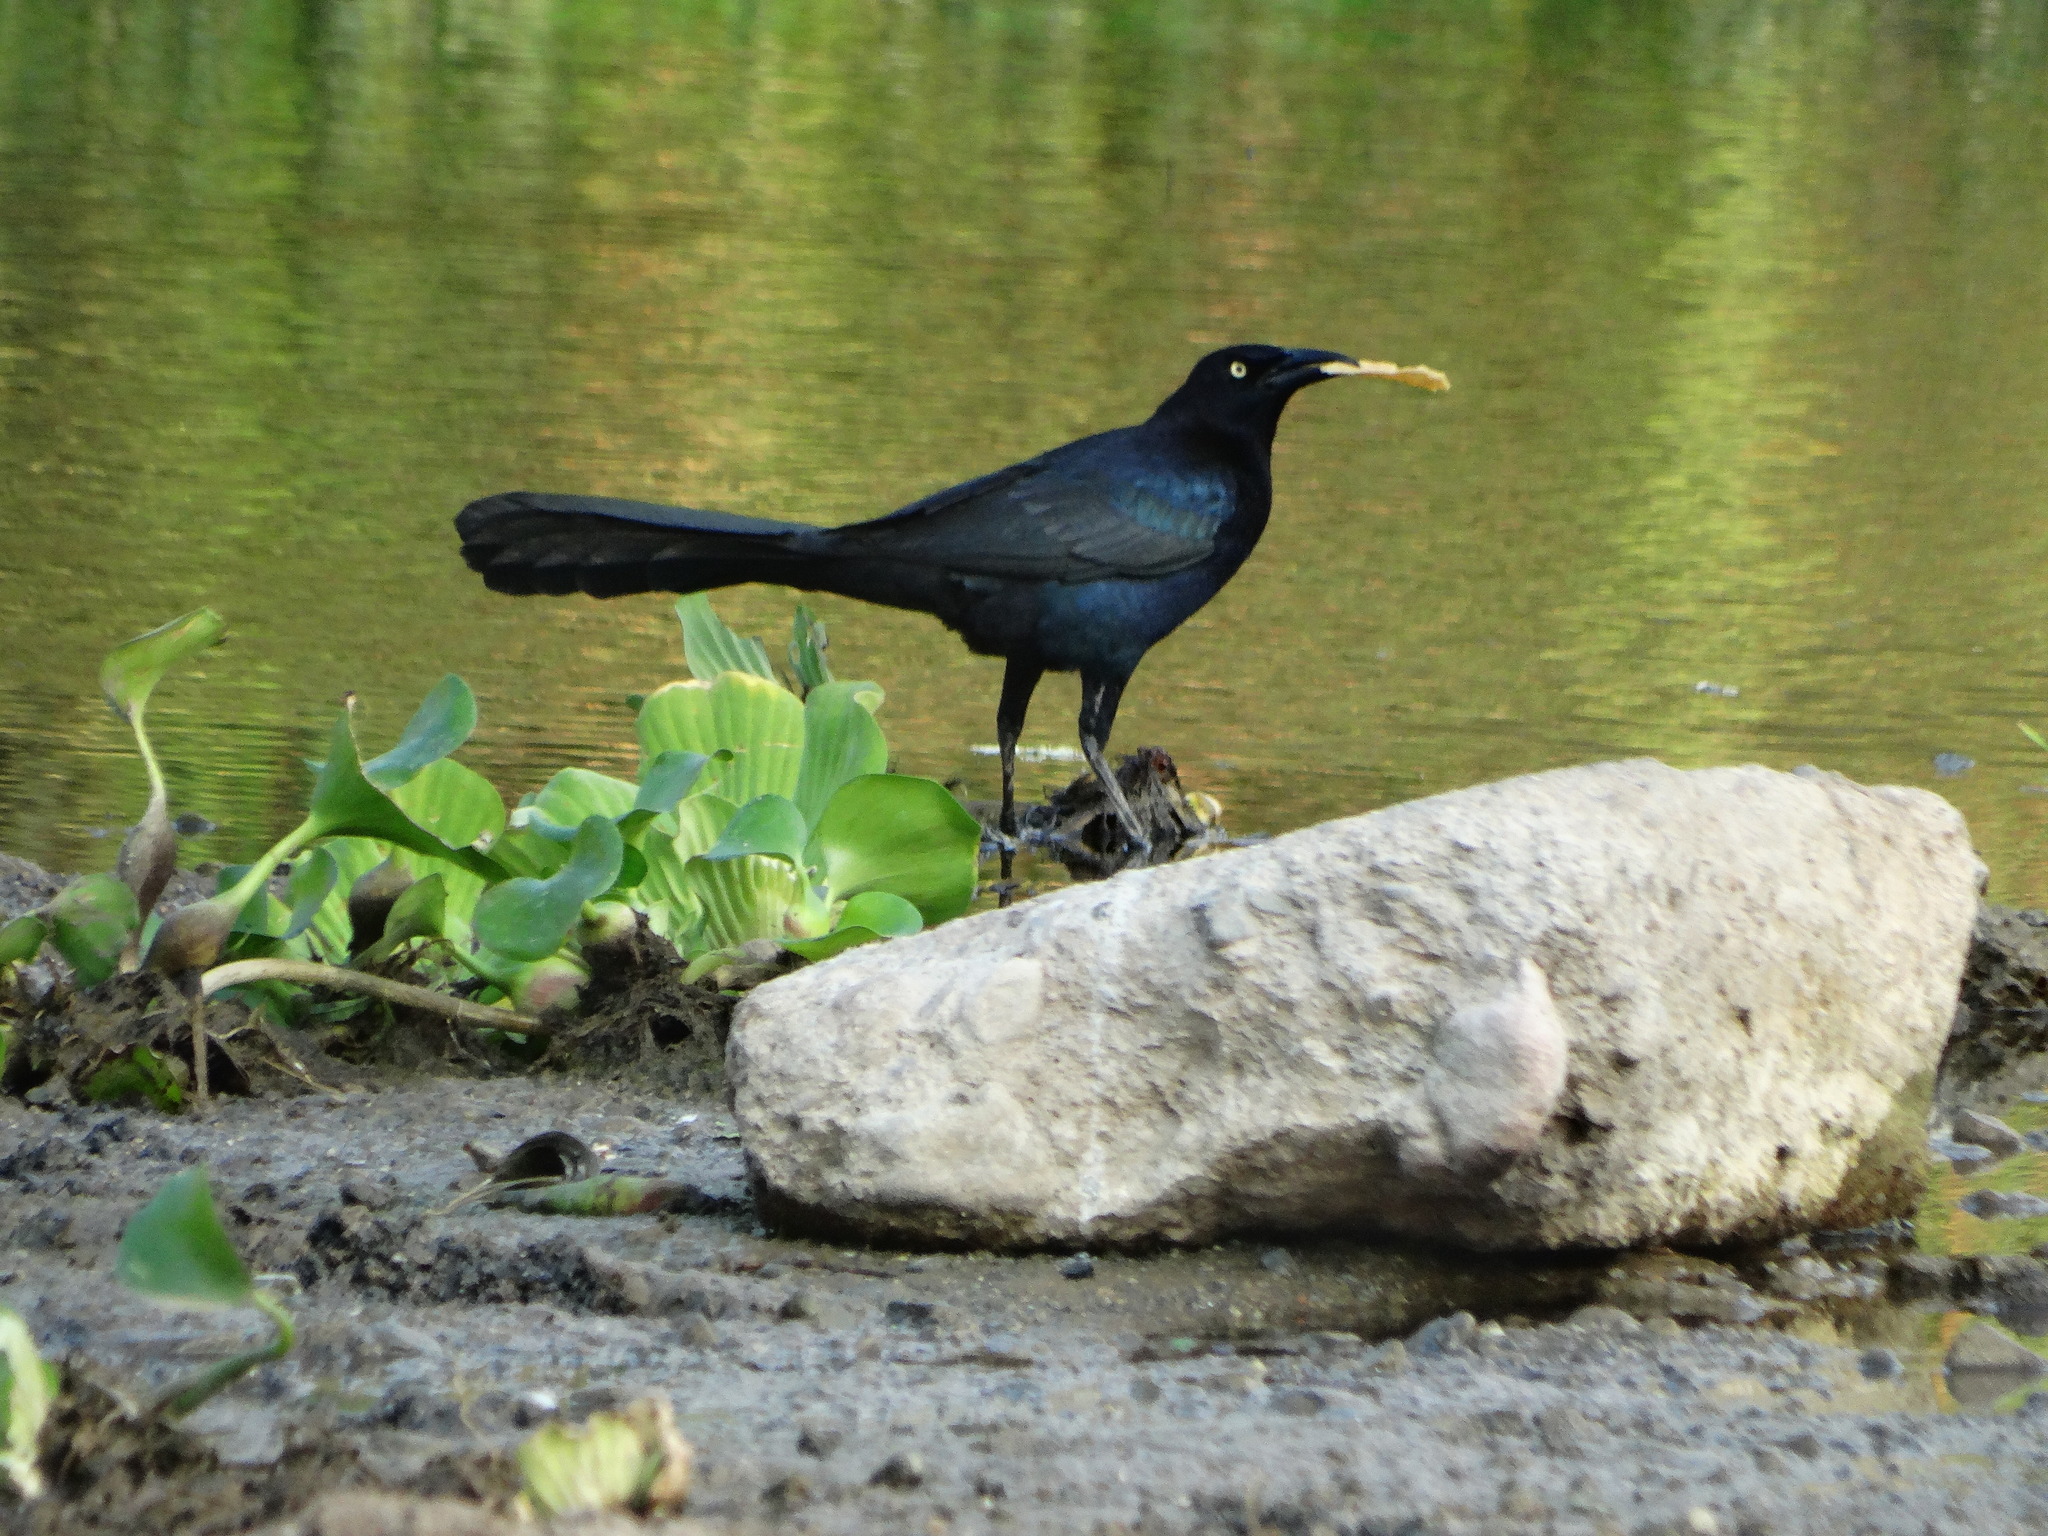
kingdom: Animalia
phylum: Chordata
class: Aves
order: Passeriformes
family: Icteridae
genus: Quiscalus
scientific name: Quiscalus mexicanus
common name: Great-tailed grackle
